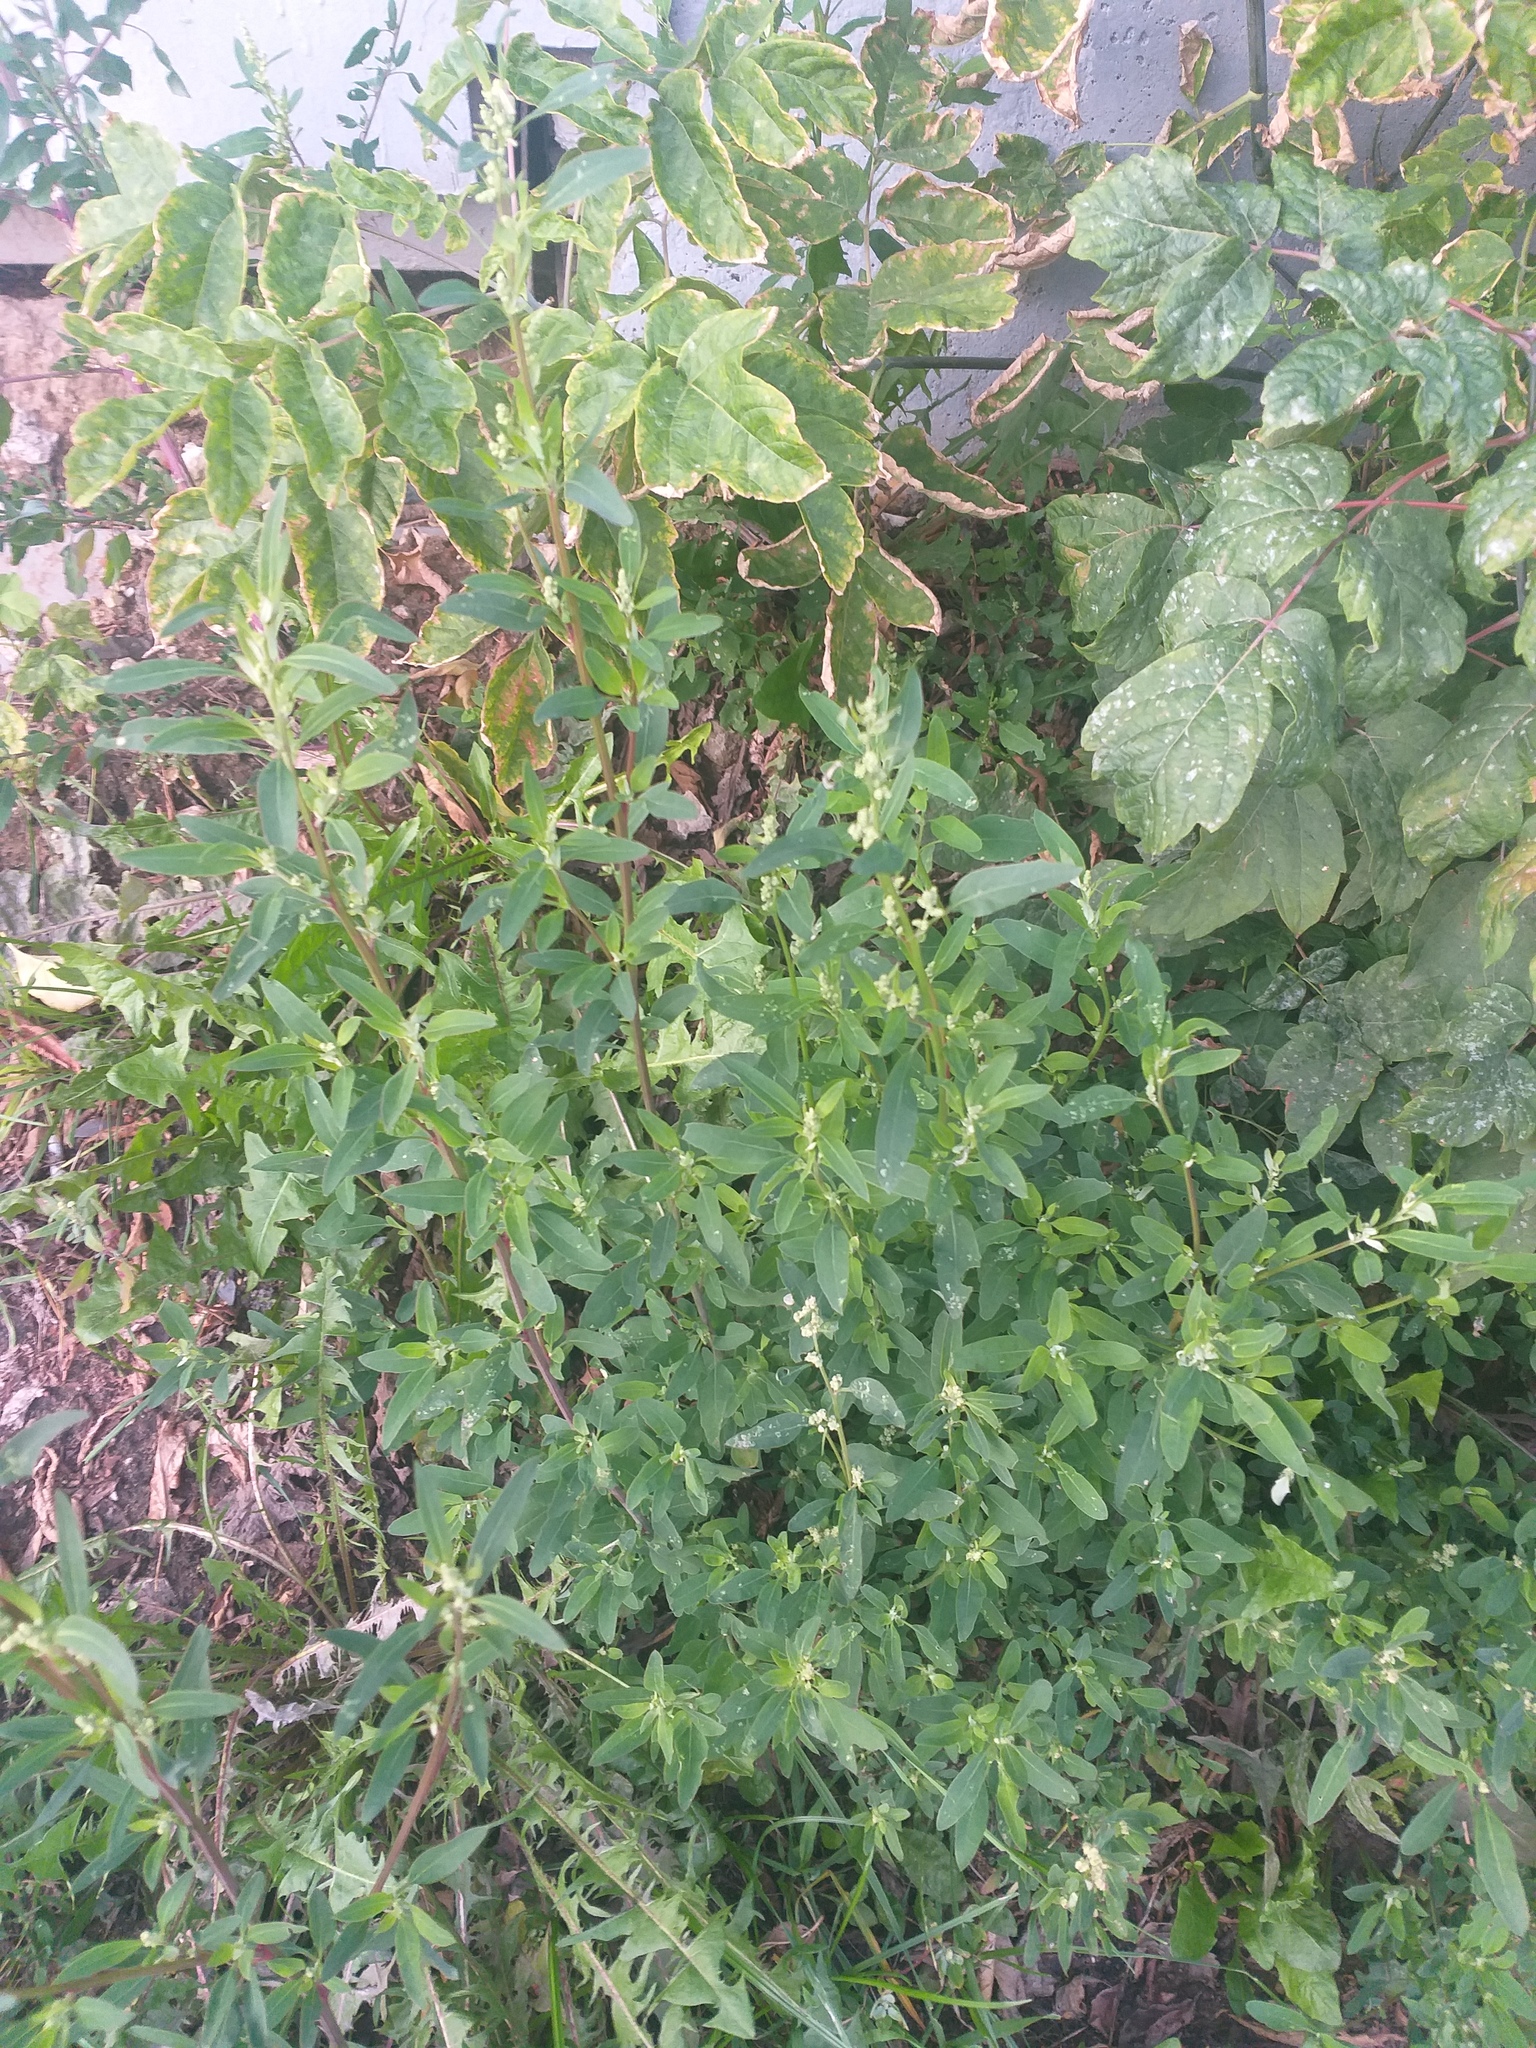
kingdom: Plantae
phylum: Tracheophyta
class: Magnoliopsida
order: Caryophyllales
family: Amaranthaceae
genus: Chenopodium
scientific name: Chenopodium betaceum
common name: Striped goosefoot
